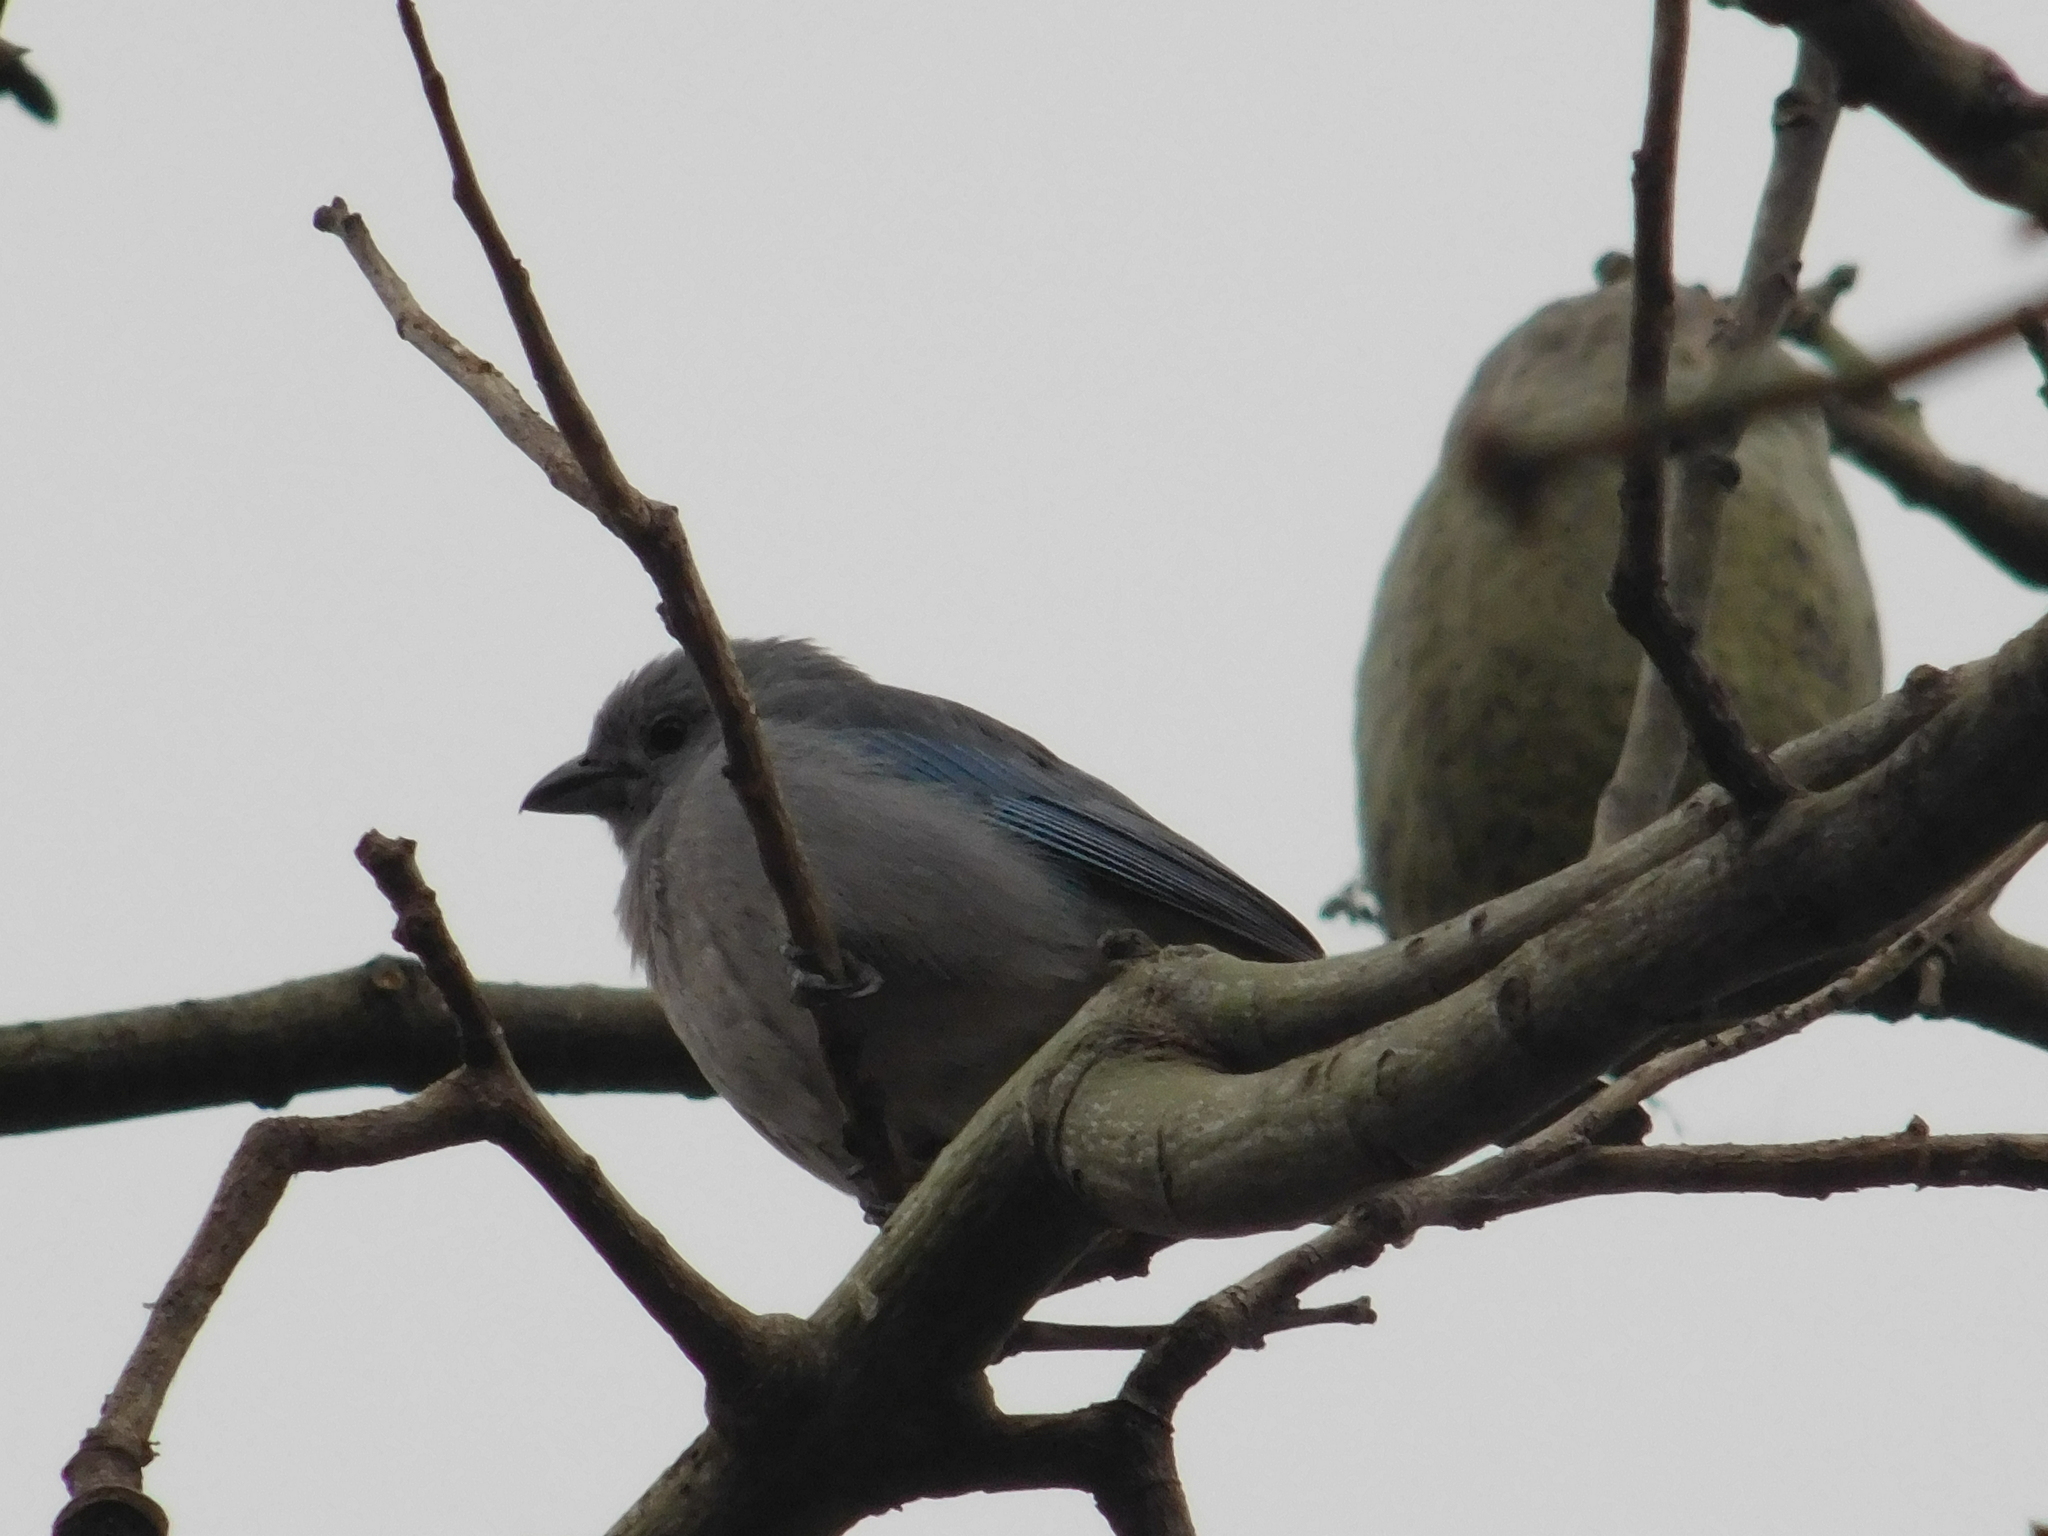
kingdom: Animalia
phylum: Chordata
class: Aves
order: Passeriformes
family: Thraupidae
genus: Thraupis
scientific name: Thraupis sayaca
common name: Sayaca tanager
